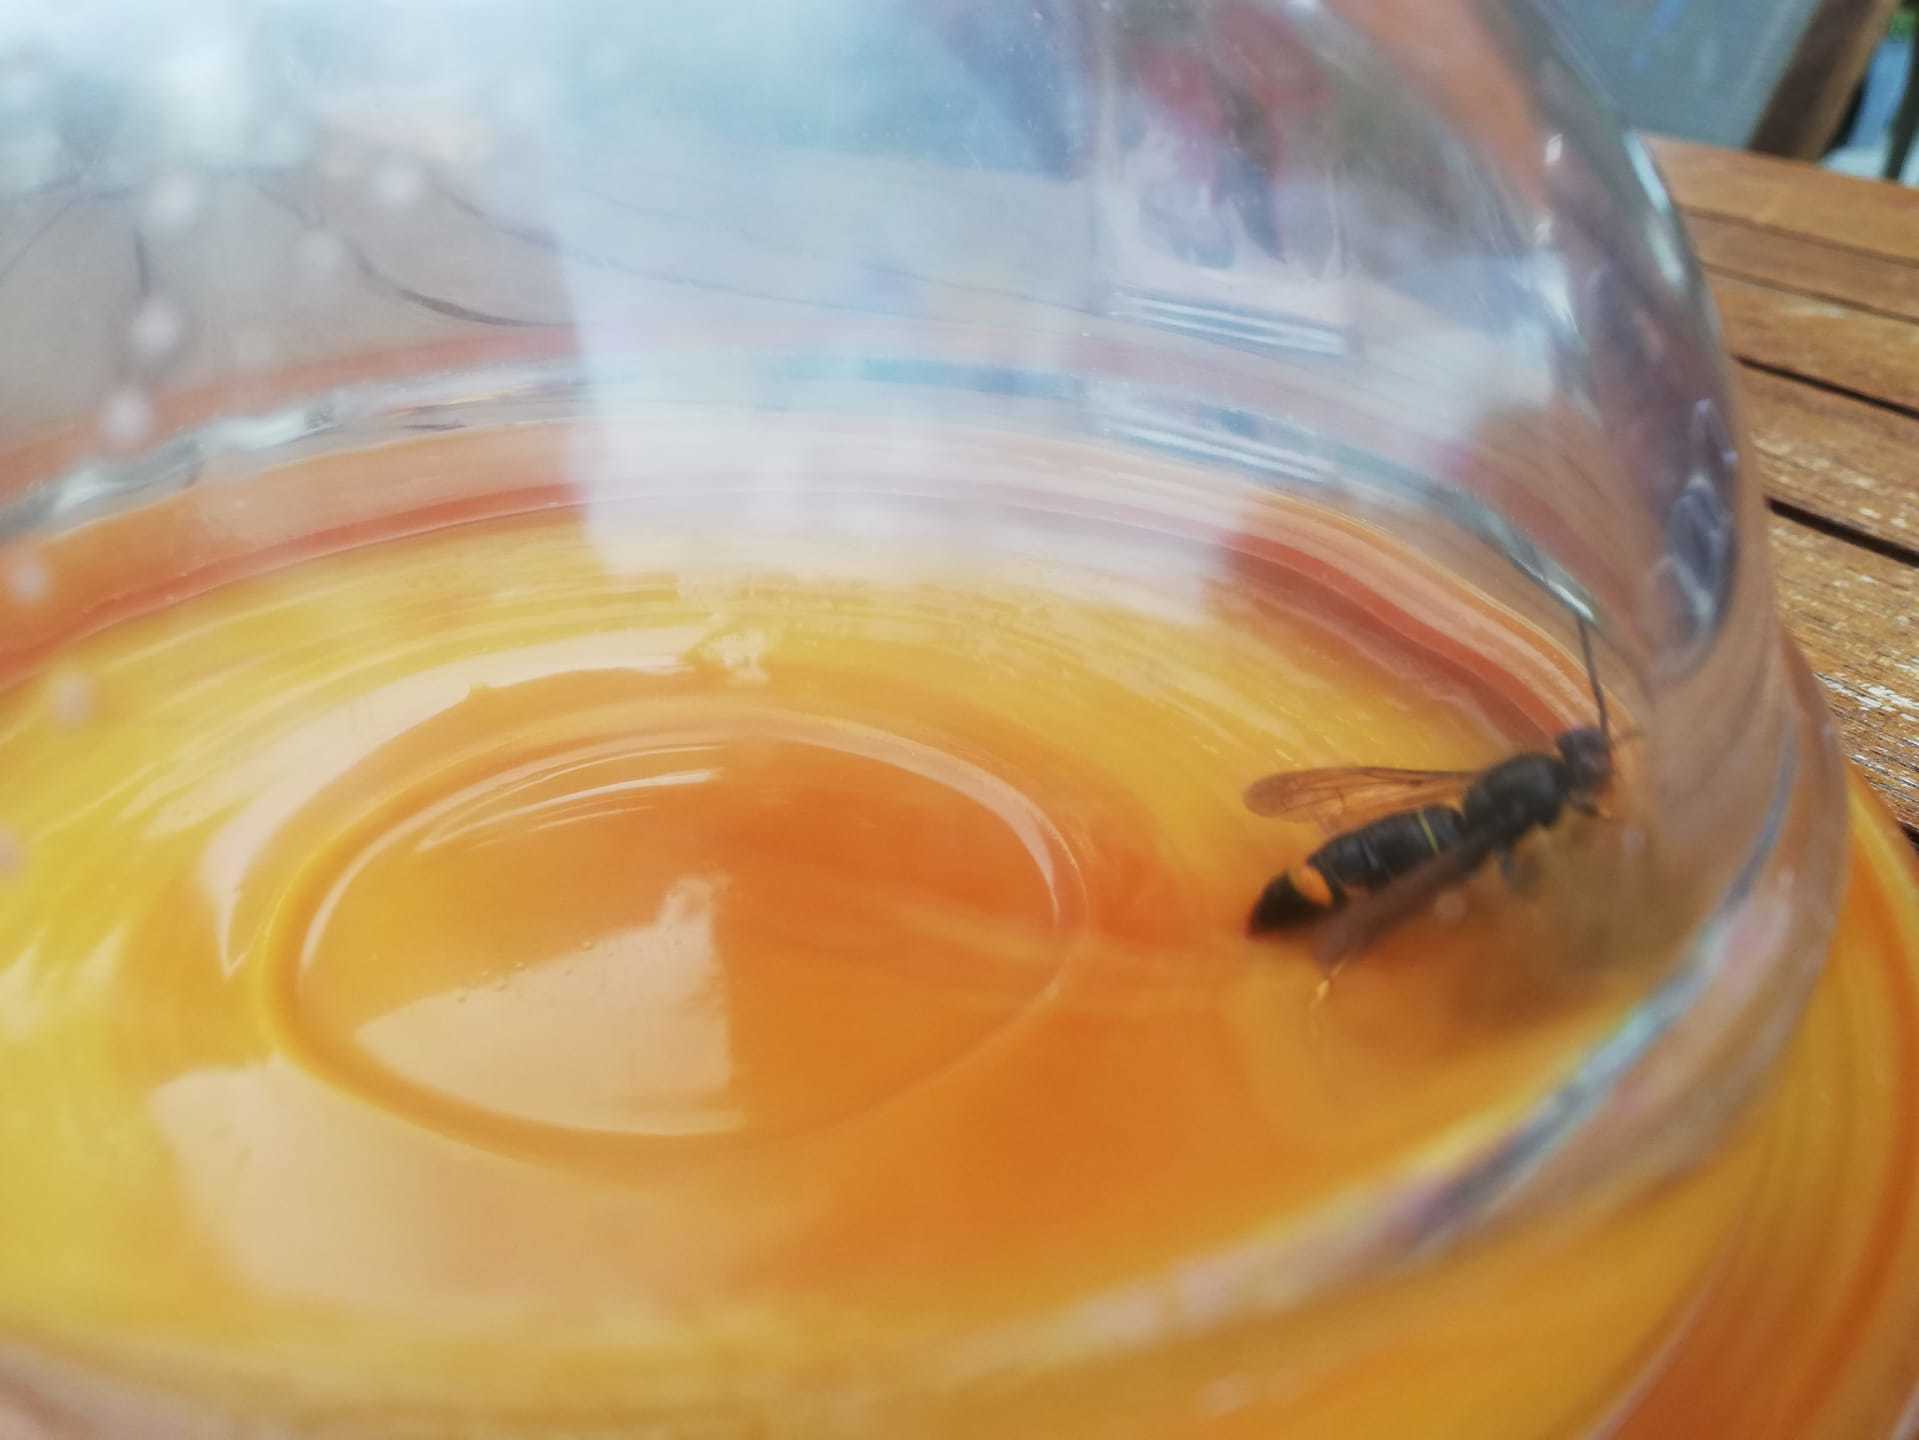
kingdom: Animalia
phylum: Arthropoda
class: Insecta
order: Hymenoptera
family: Vespidae
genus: Vespa
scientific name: Vespa velutina
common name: Asian hornet
